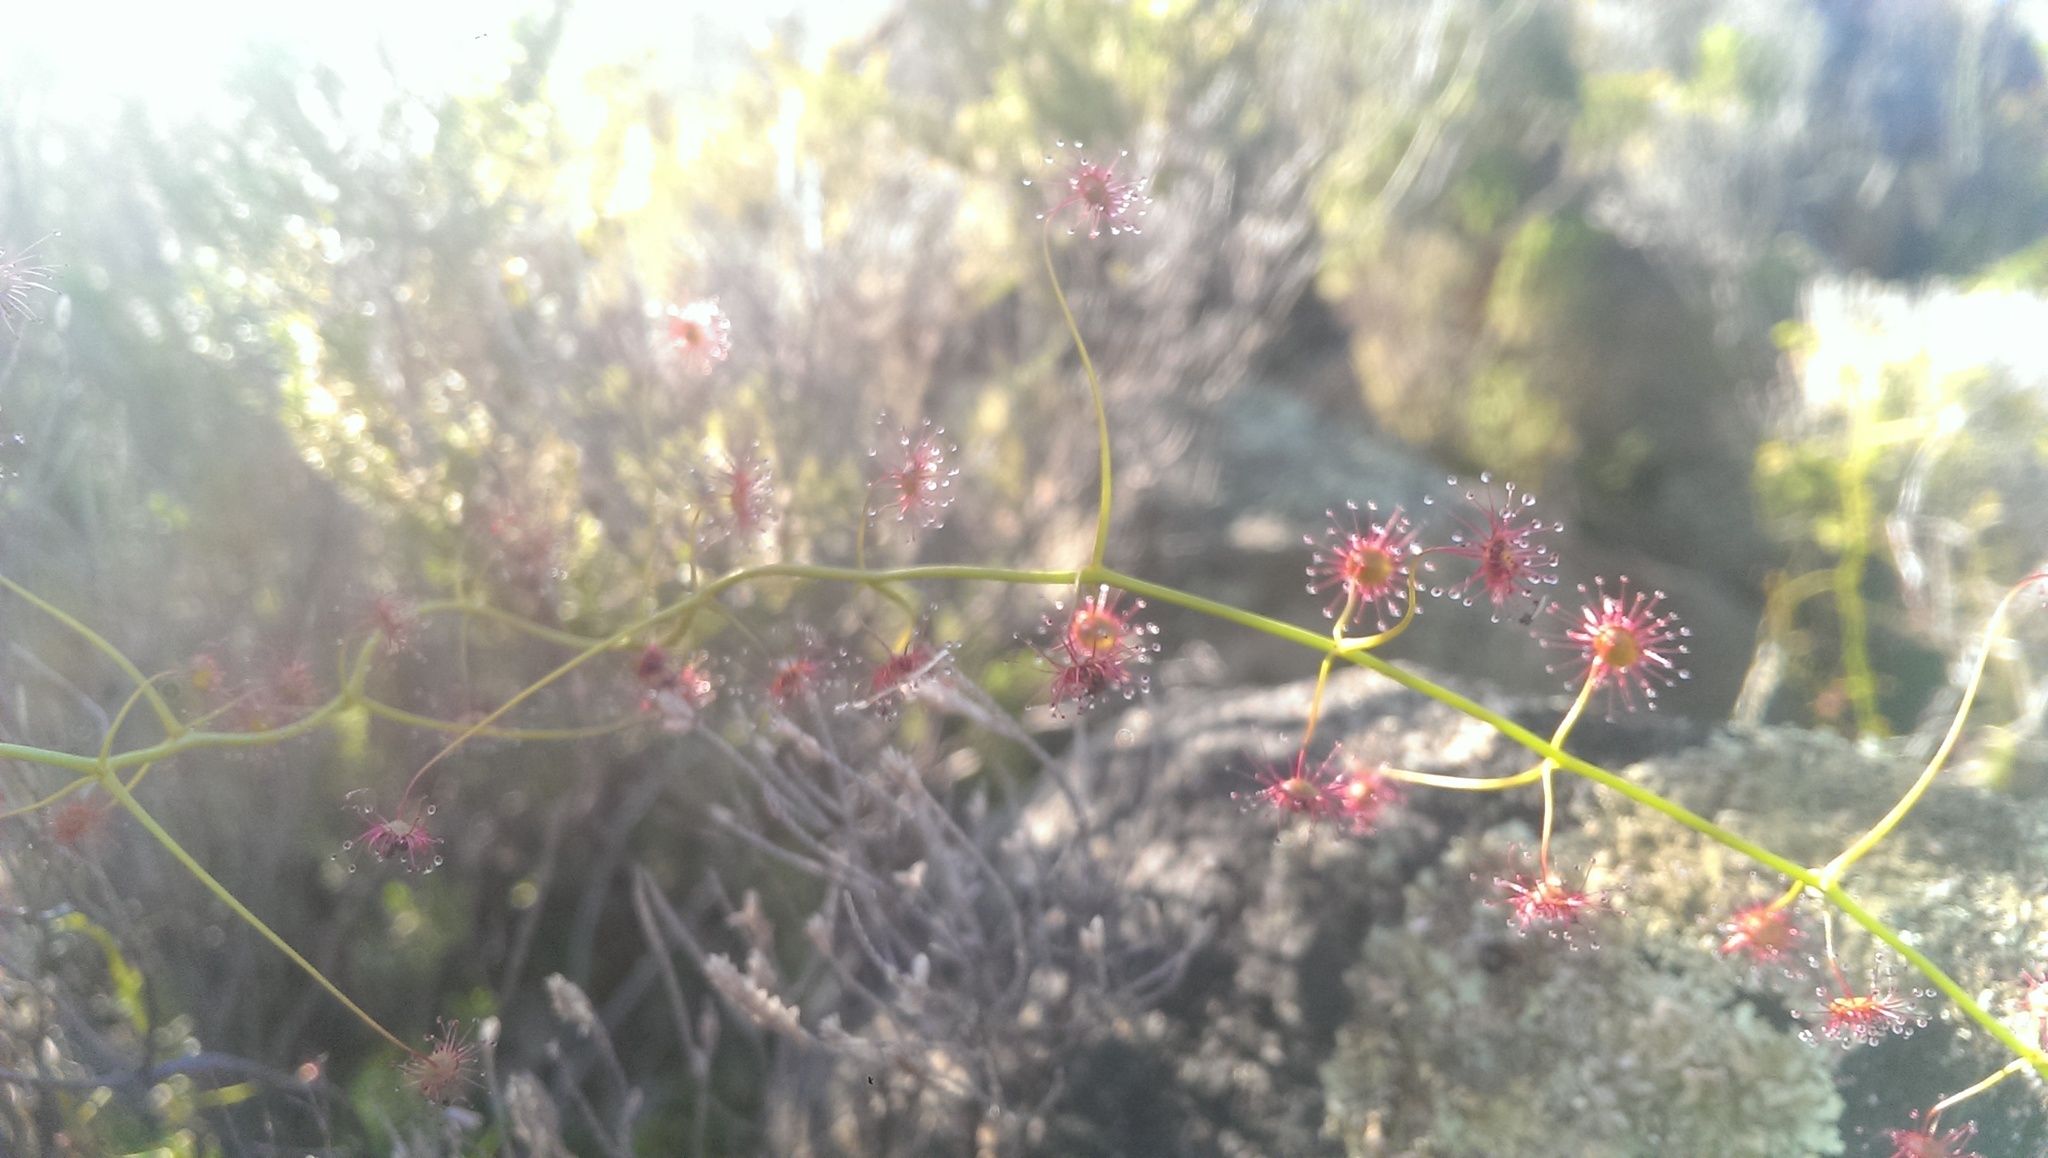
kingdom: Plantae
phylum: Tracheophyta
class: Magnoliopsida
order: Caryophyllales
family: Droseraceae
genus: Drosera
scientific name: Drosera pallida
